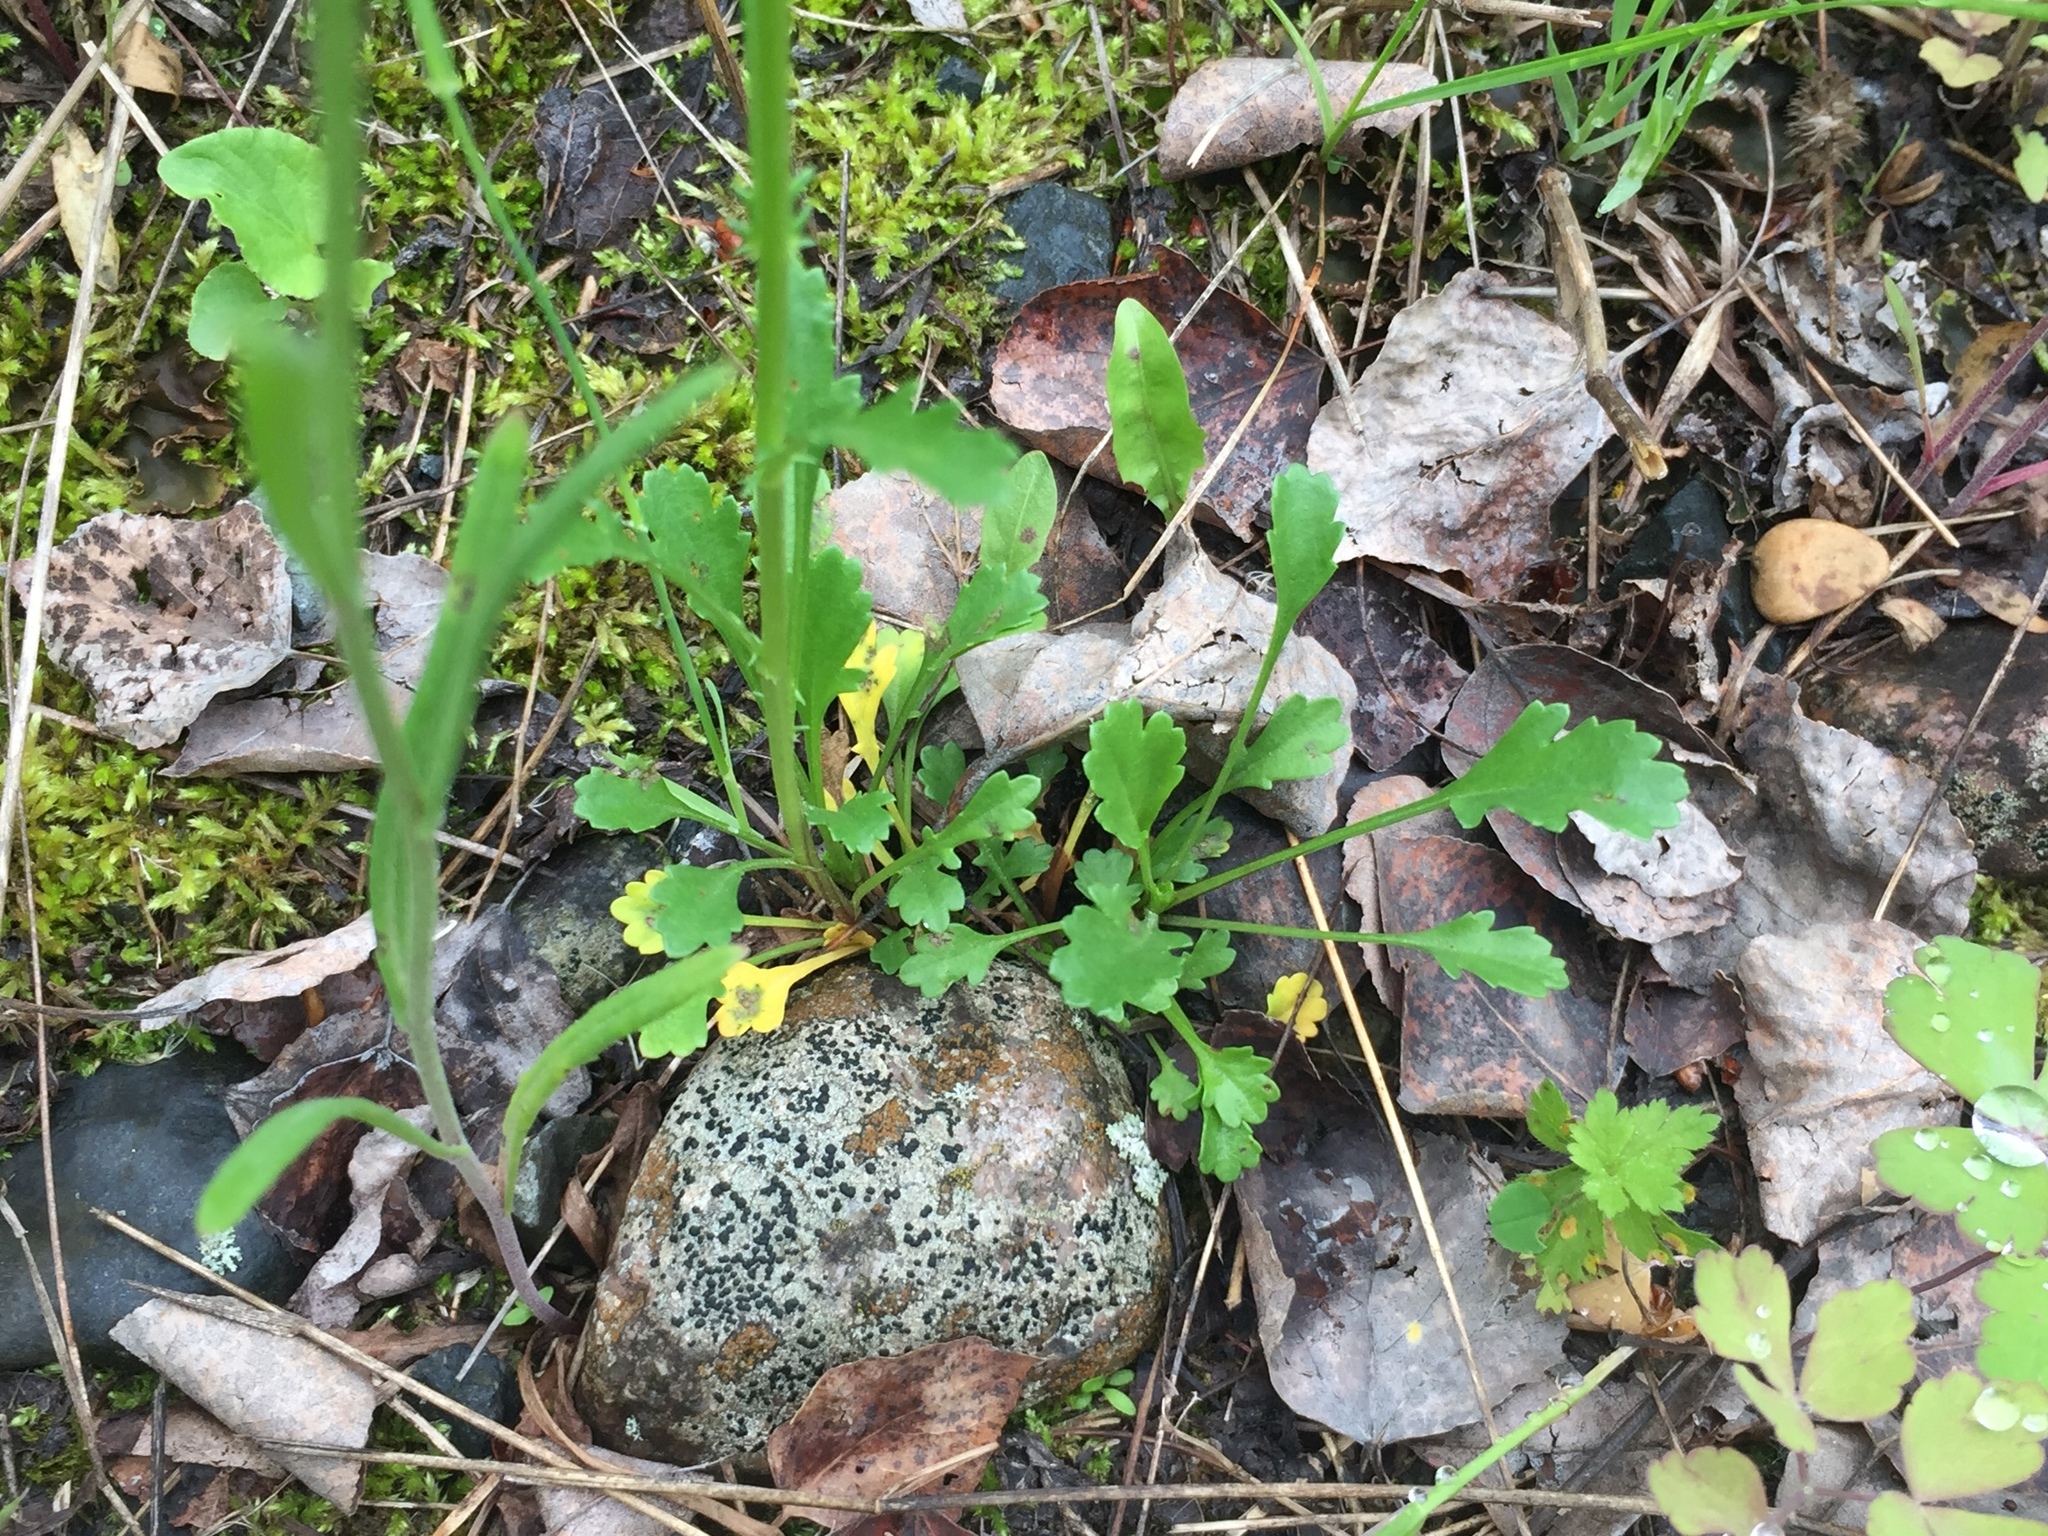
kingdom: Plantae
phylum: Tracheophyta
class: Magnoliopsida
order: Asterales
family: Asteraceae
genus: Hieracium
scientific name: Hieracium umbellatum
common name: Northern hawkweed
